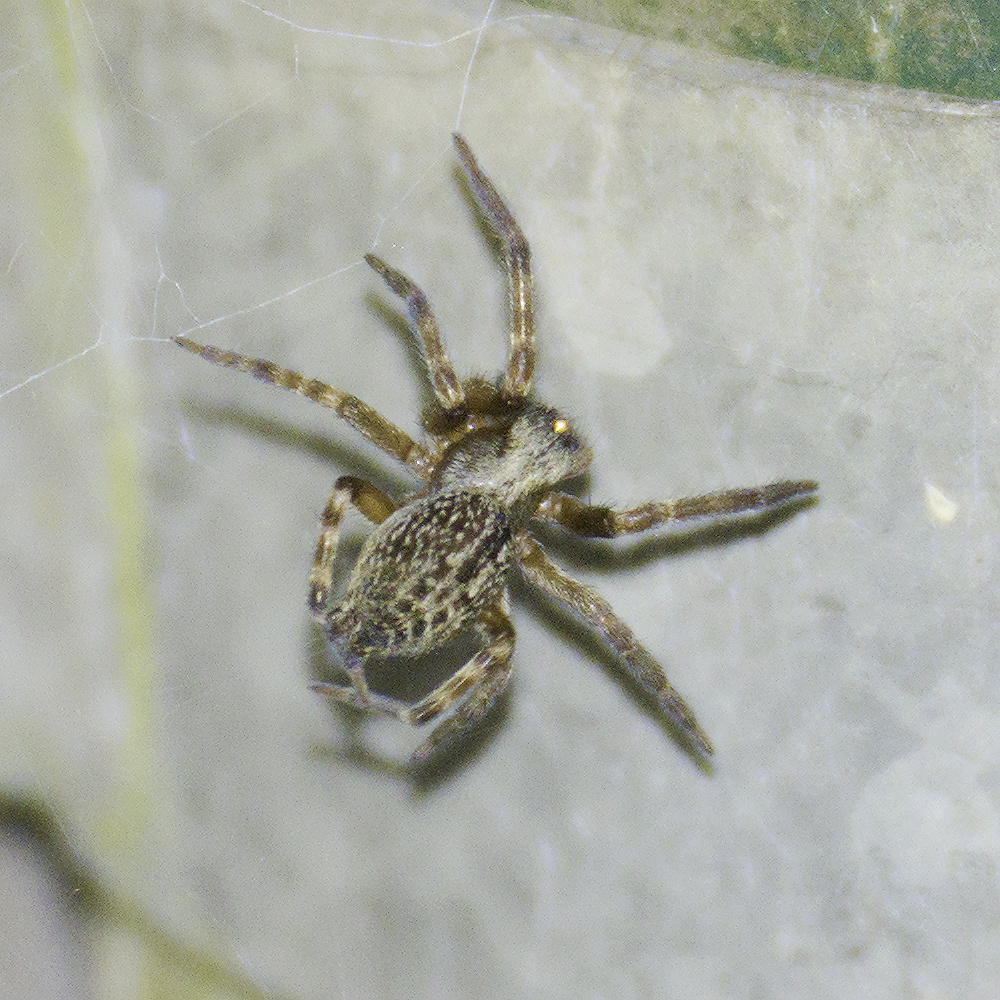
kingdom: Animalia
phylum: Arthropoda
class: Arachnida
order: Araneae
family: Desidae
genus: Badumna
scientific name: Badumna longinqua
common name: Gray house spider
